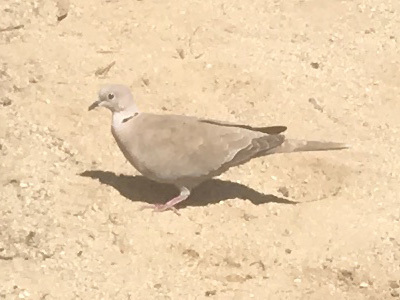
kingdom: Animalia
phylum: Chordata
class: Aves
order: Columbiformes
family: Columbidae
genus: Streptopelia
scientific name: Streptopelia decaocto
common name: Eurasian collared dove
